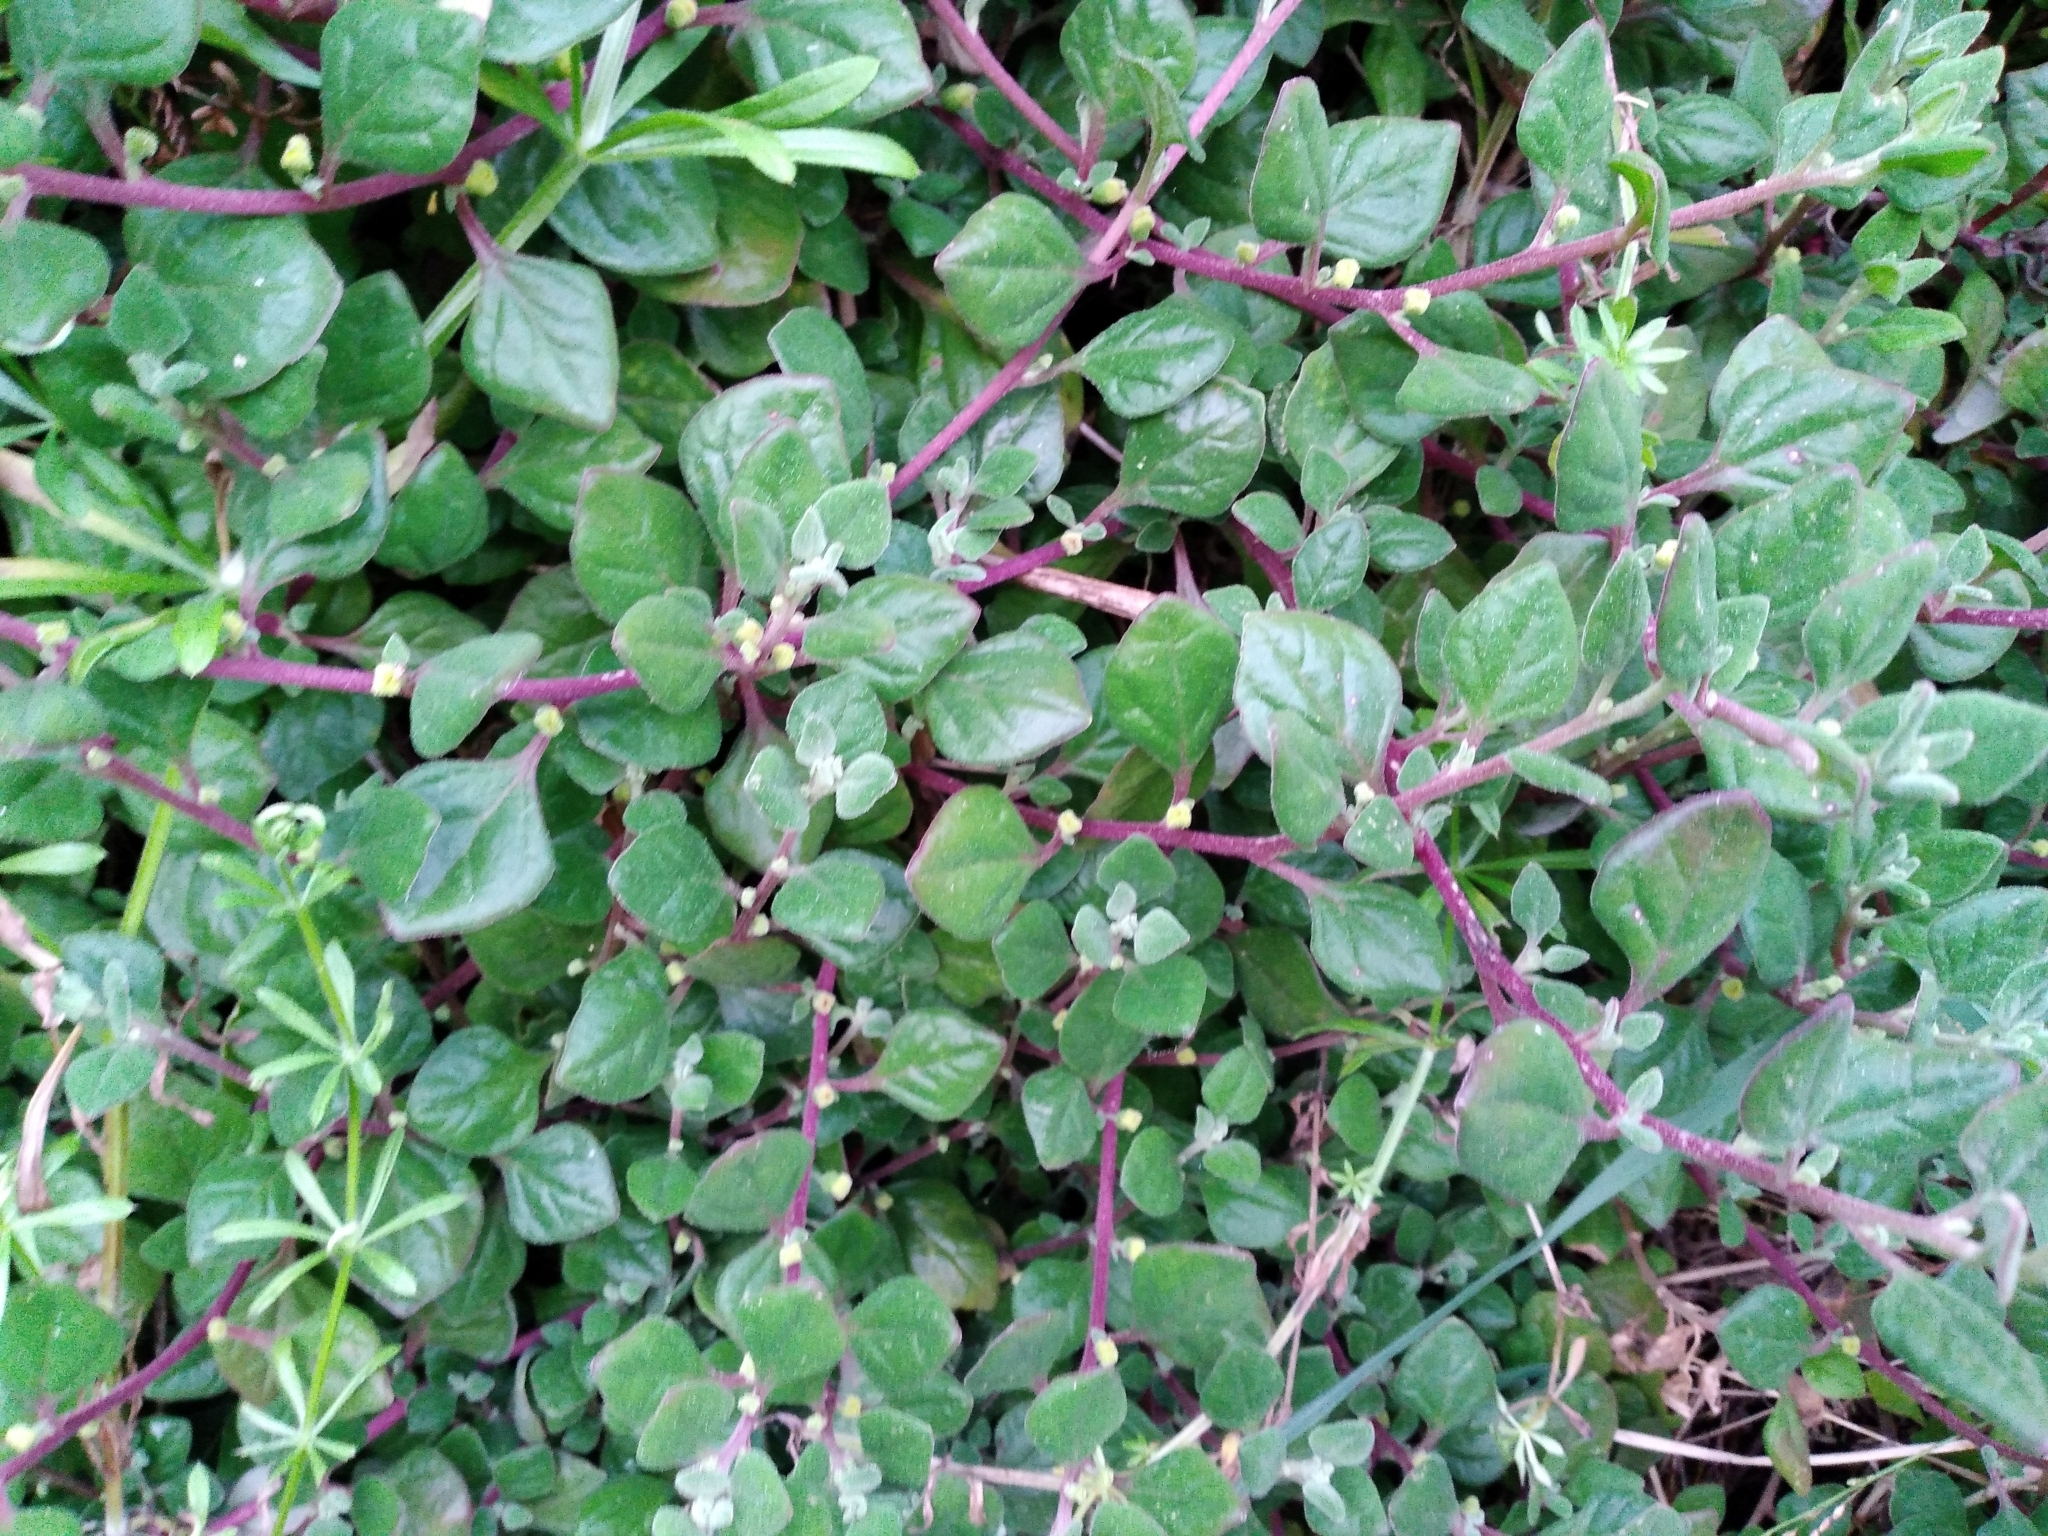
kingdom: Plantae
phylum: Tracheophyta
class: Magnoliopsida
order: Caryophyllales
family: Aizoaceae
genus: Tetragonia
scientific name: Tetragonia implexicoma
